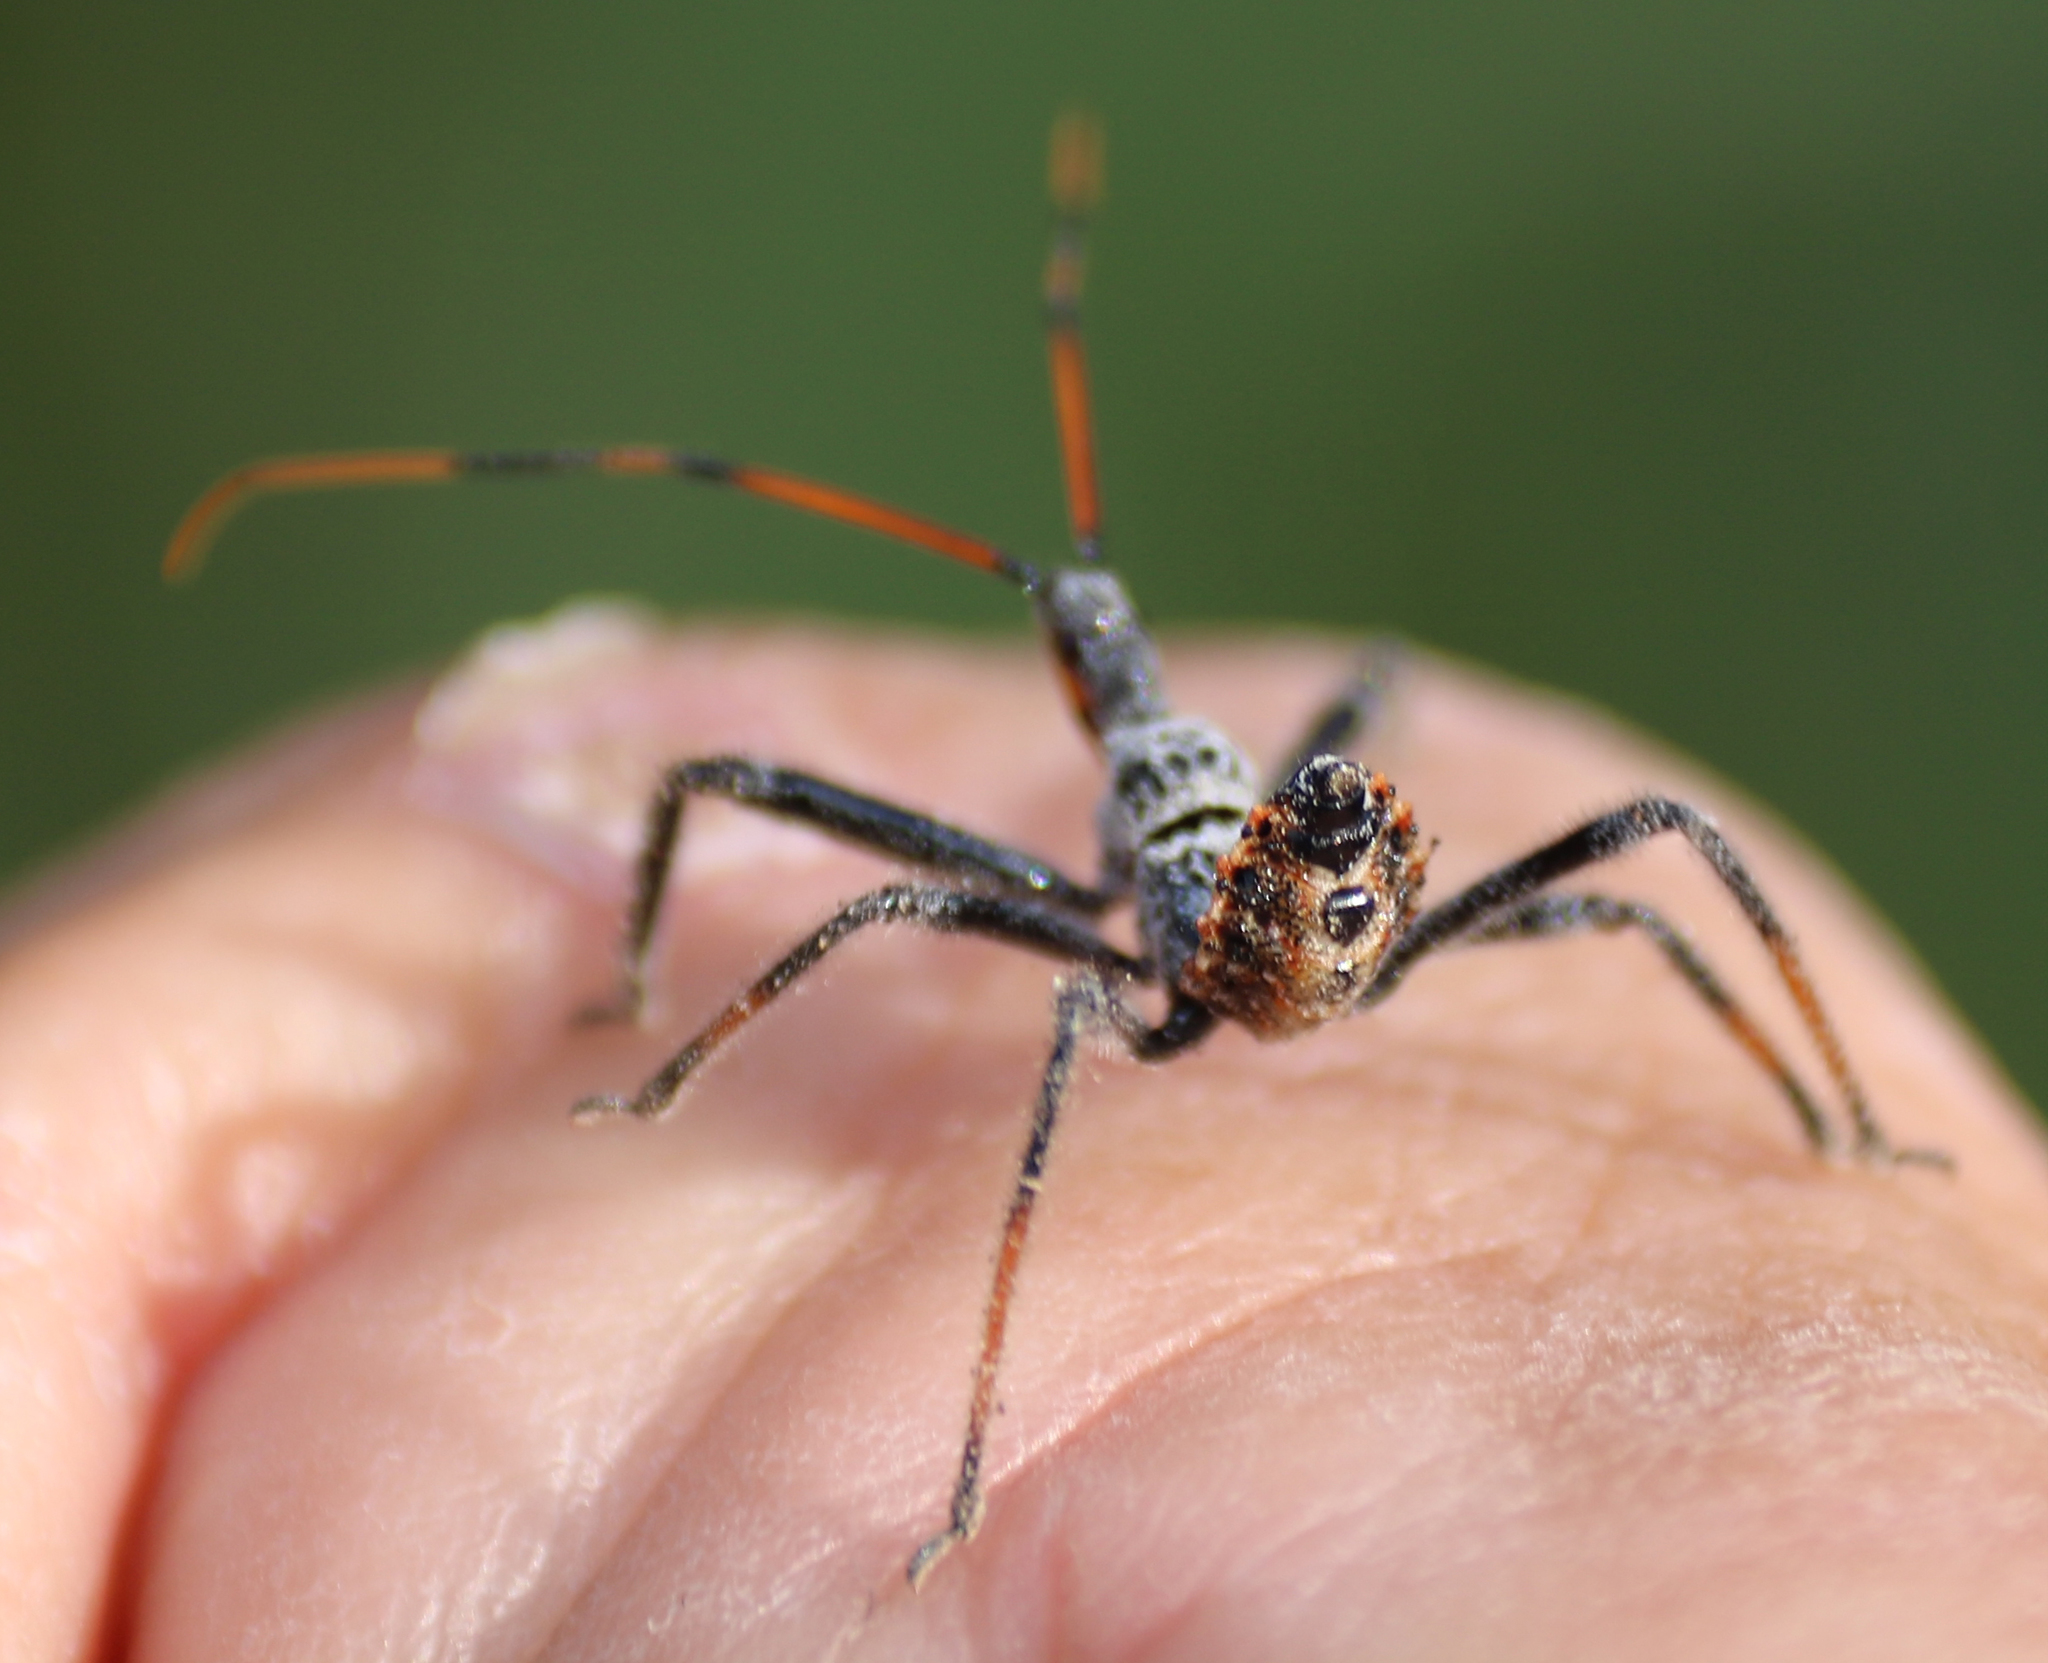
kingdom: Animalia
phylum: Arthropoda
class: Insecta
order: Hemiptera
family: Reduviidae
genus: Arilus
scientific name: Arilus cristatus
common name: North american wheel bug
